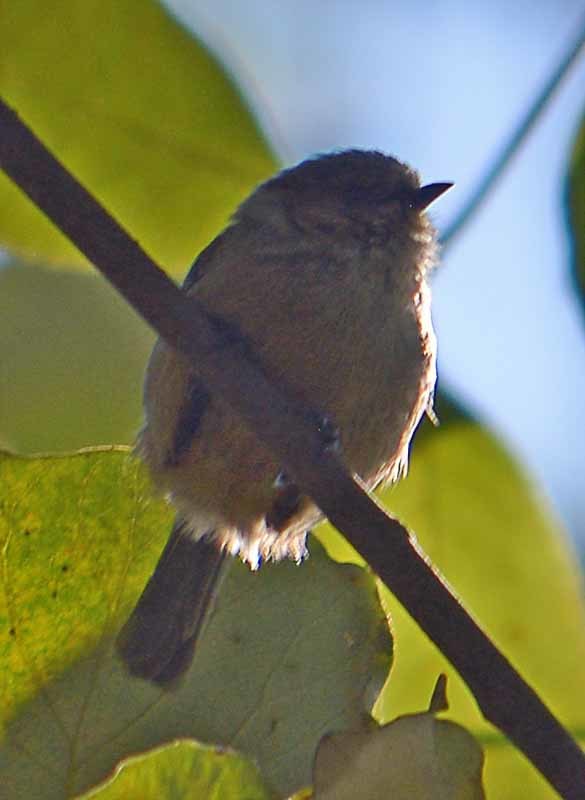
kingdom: Animalia
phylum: Chordata
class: Aves
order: Passeriformes
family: Aegithalidae
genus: Psaltriparus
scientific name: Psaltriparus minimus
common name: American bushtit
